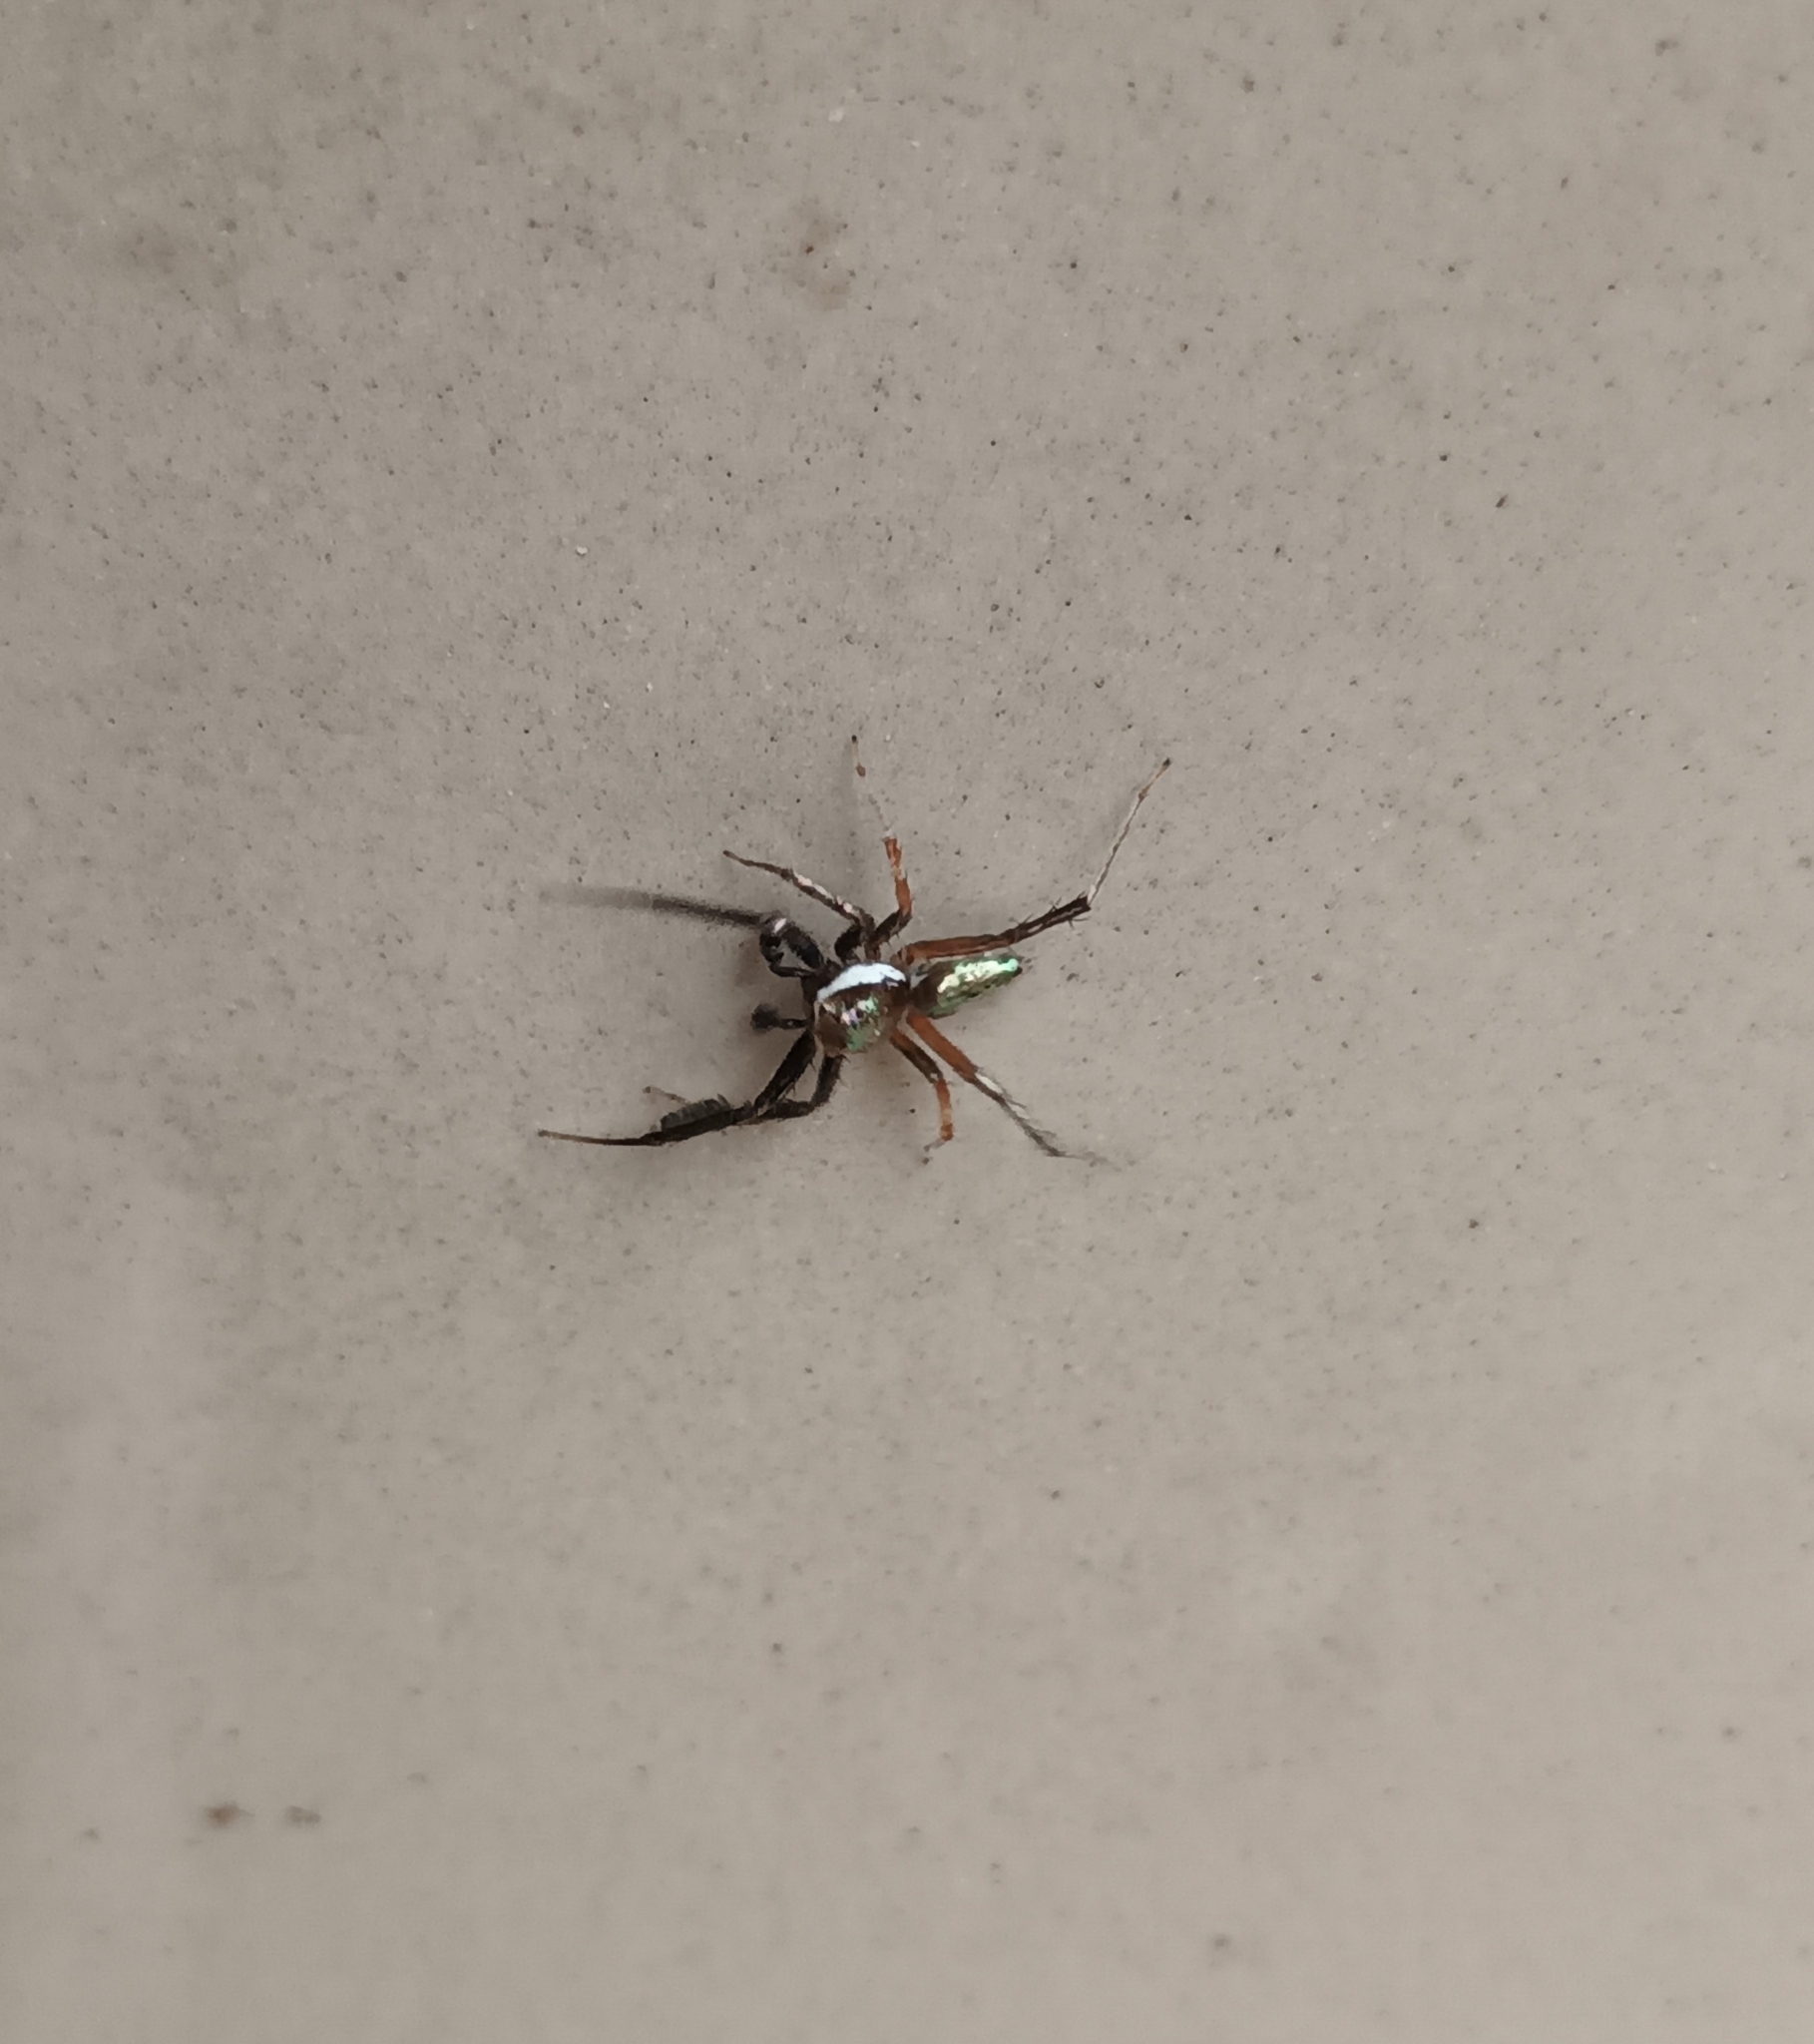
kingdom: Animalia
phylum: Arthropoda
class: Arachnida
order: Araneae
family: Salticidae
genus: Brettus
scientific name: Brettus cingulatus
